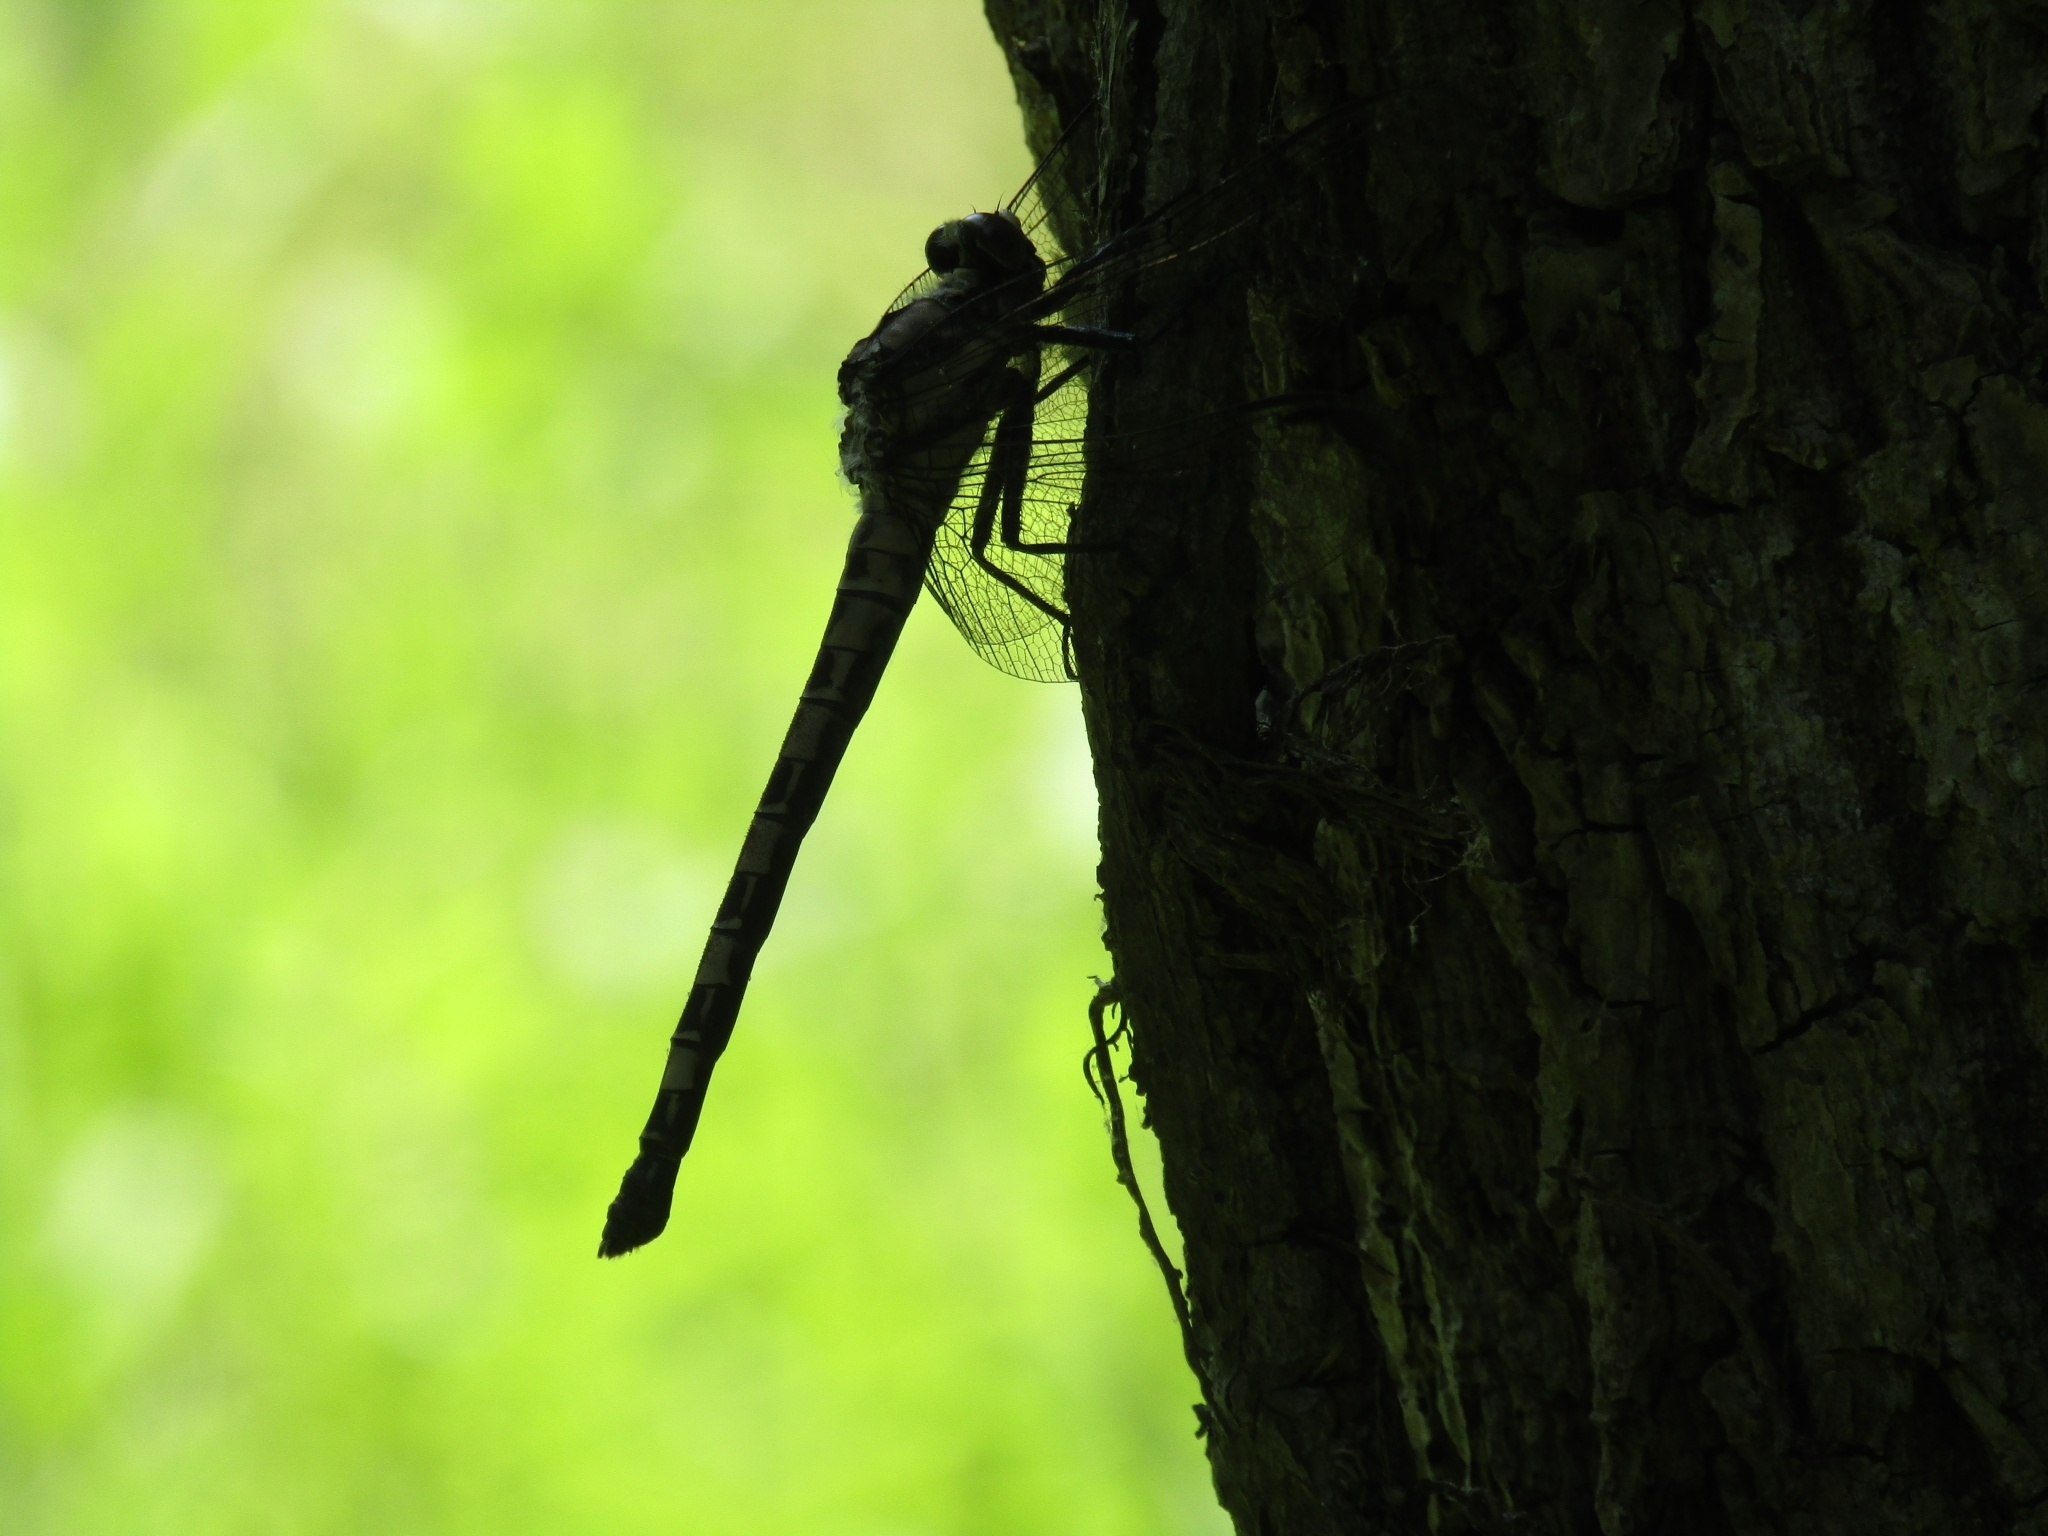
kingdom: Animalia
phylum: Arthropoda
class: Insecta
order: Odonata
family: Petaluridae
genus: Tachopteryx
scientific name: Tachopteryx thoreyi
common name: Gray petaltail
